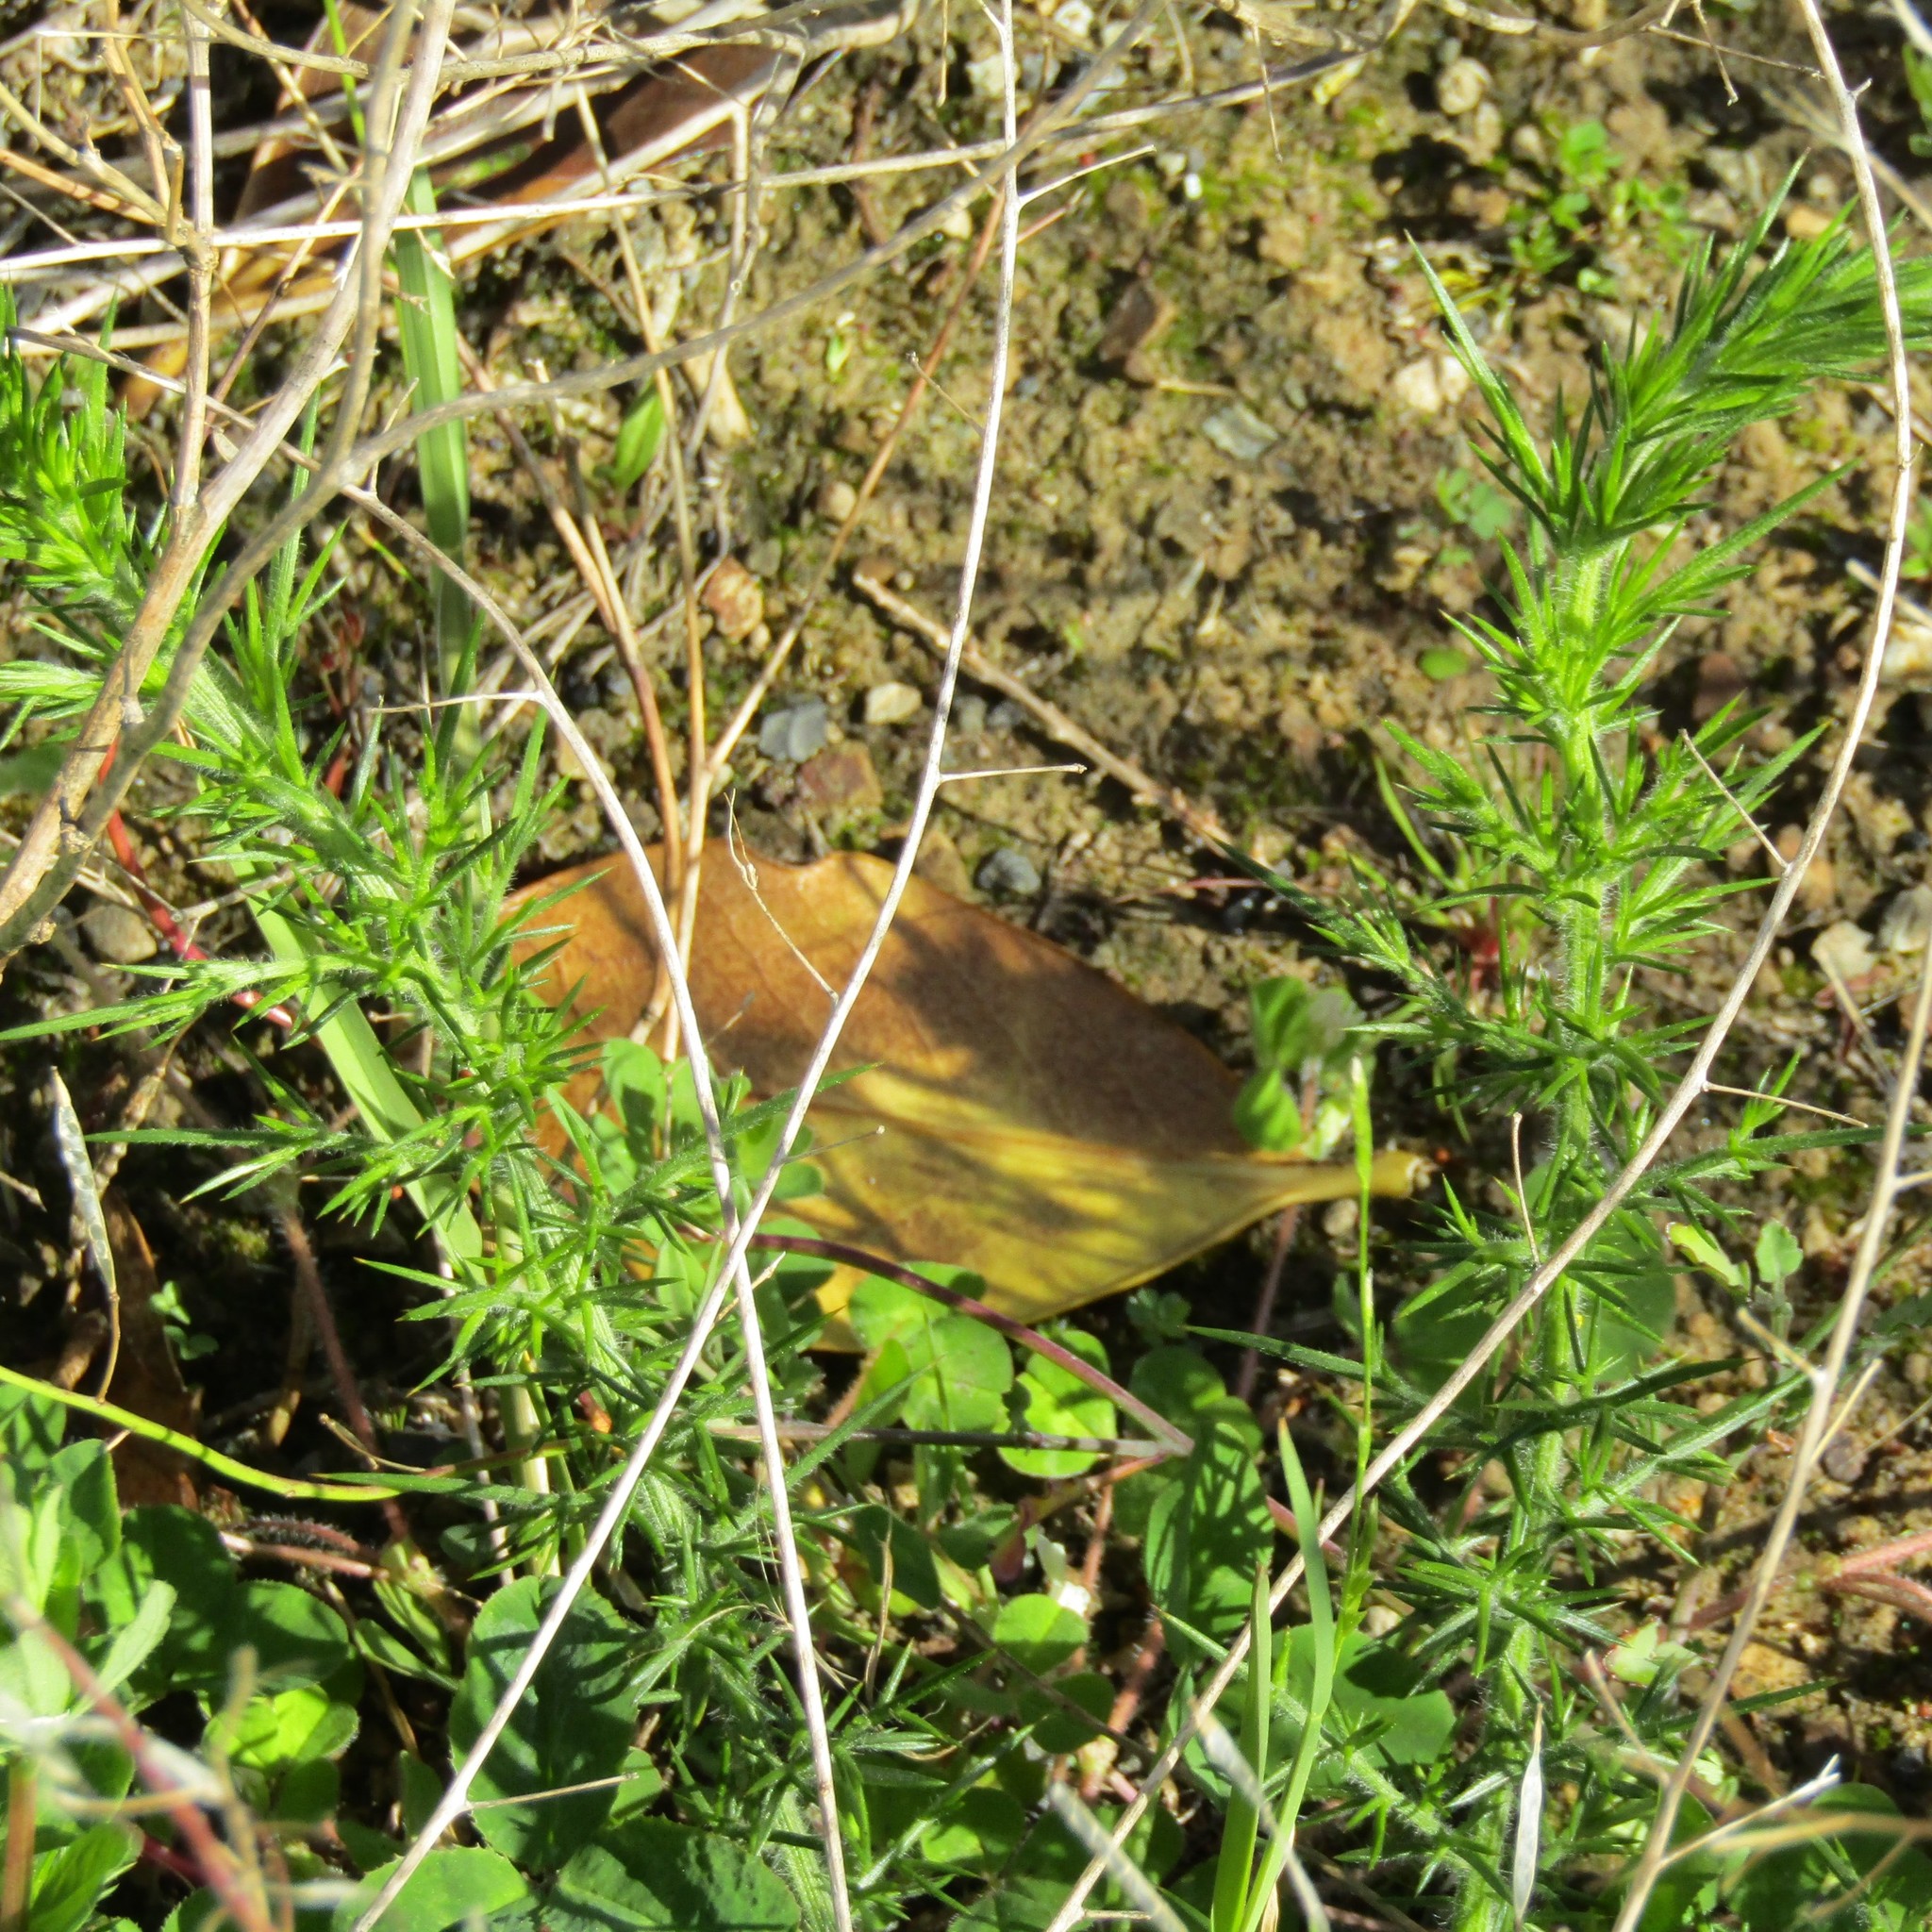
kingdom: Plantae
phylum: Tracheophyta
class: Magnoliopsida
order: Fabales
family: Fabaceae
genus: Ulex
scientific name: Ulex europaeus
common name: Common gorse
